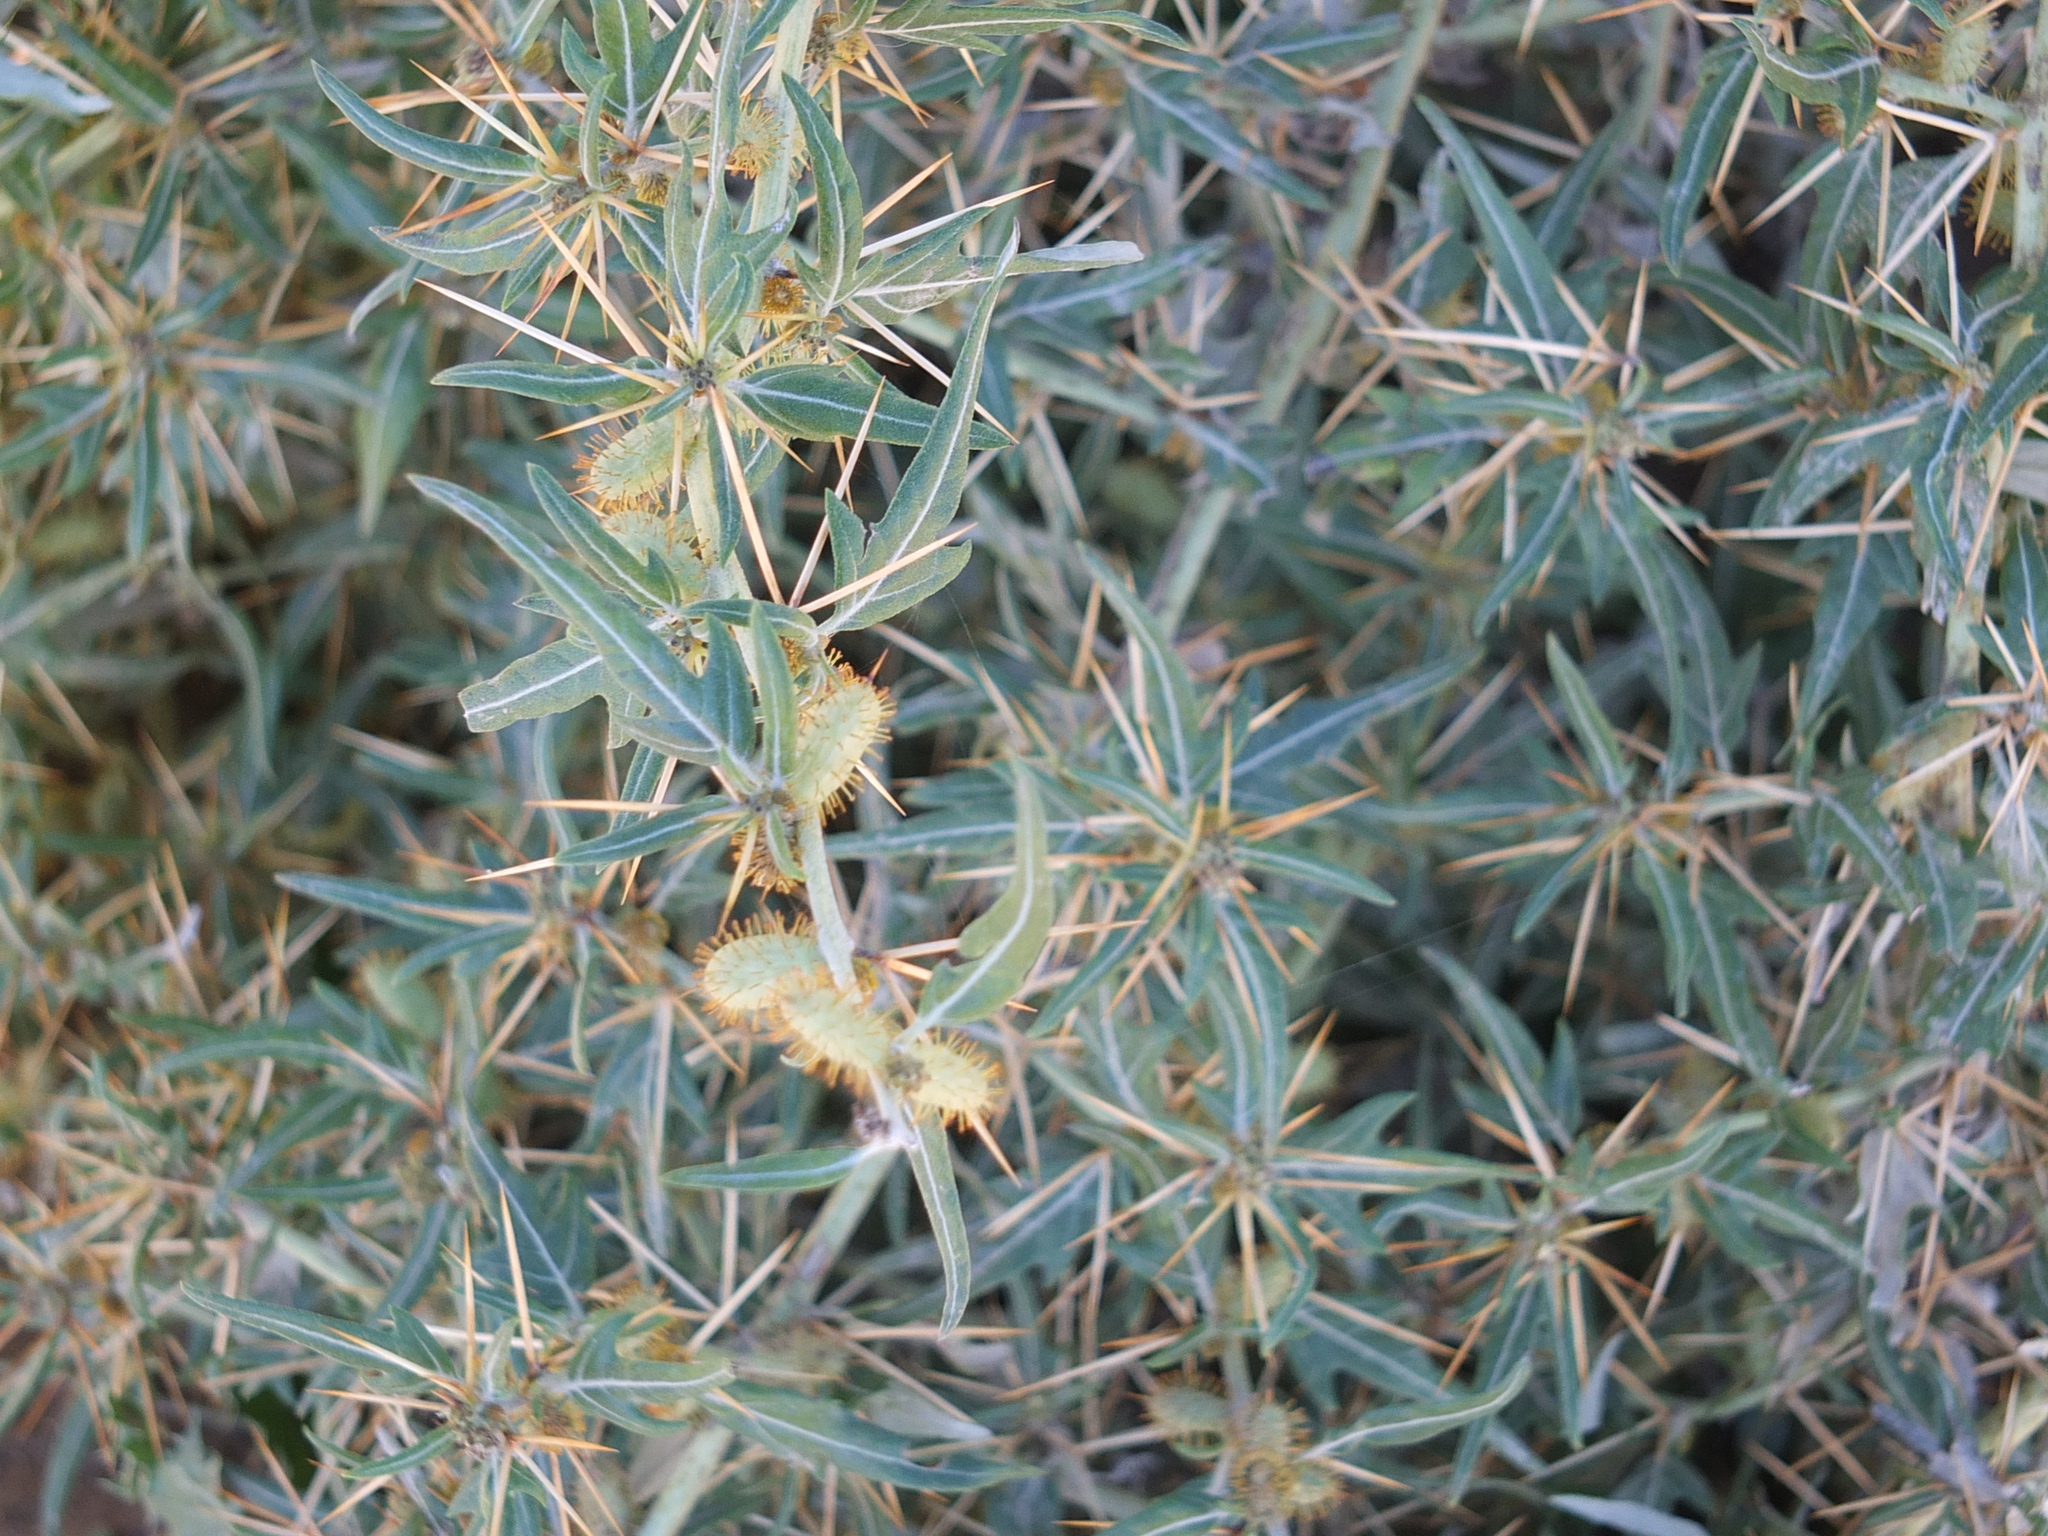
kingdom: Plantae
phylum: Tracheophyta
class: Magnoliopsida
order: Asterales
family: Asteraceae
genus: Xanthium
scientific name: Xanthium spinosum
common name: Spiny cocklebur
